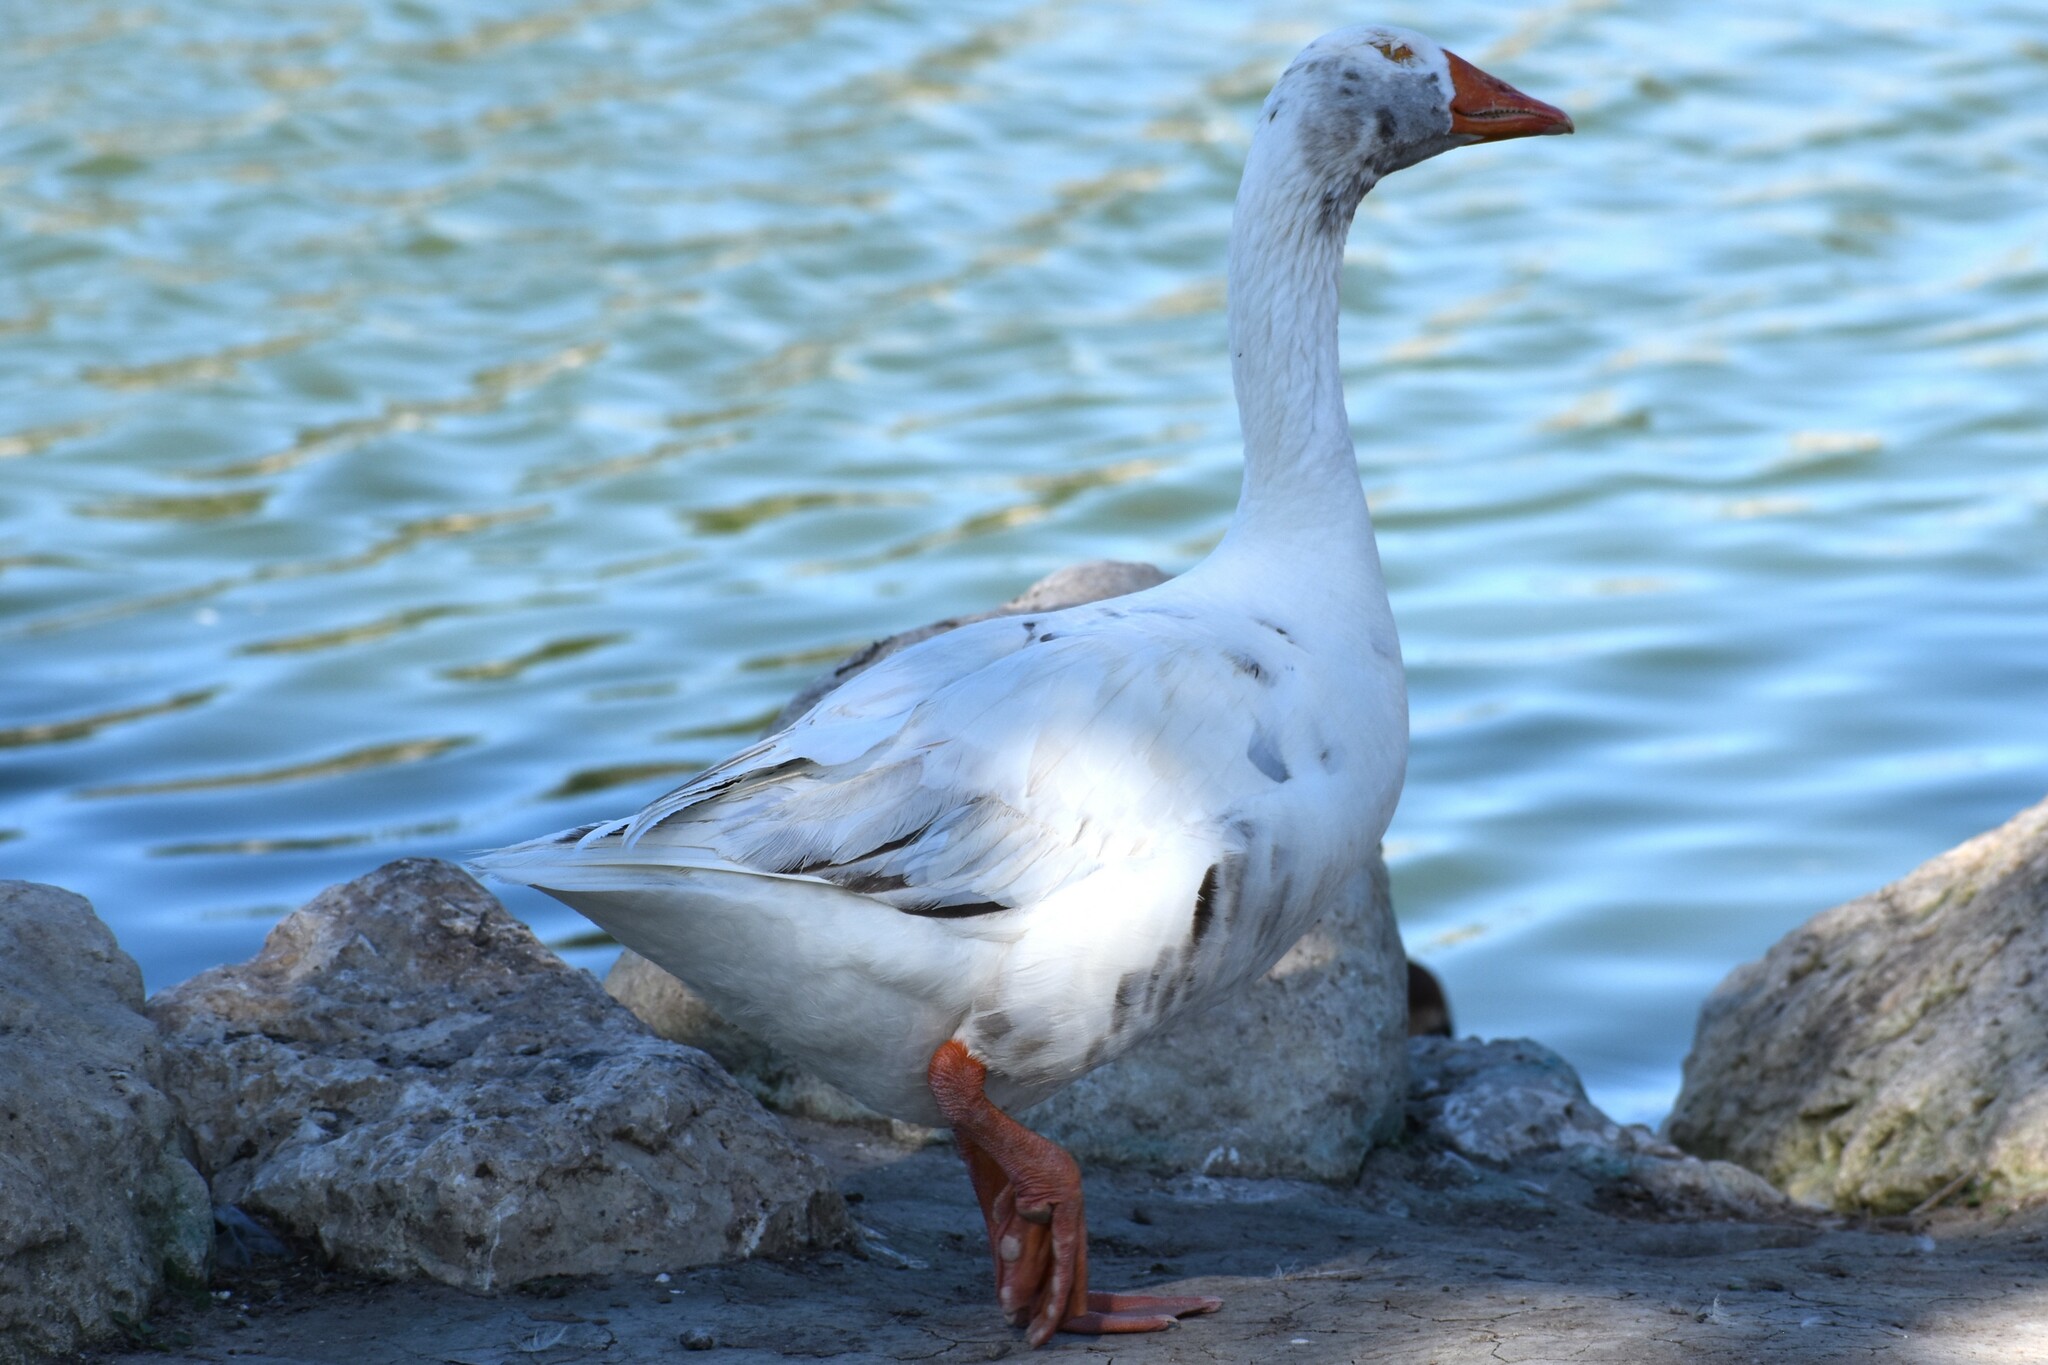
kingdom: Animalia
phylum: Chordata
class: Aves
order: Anseriformes
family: Anatidae
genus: Anser
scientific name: Anser anser
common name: Greylag goose
